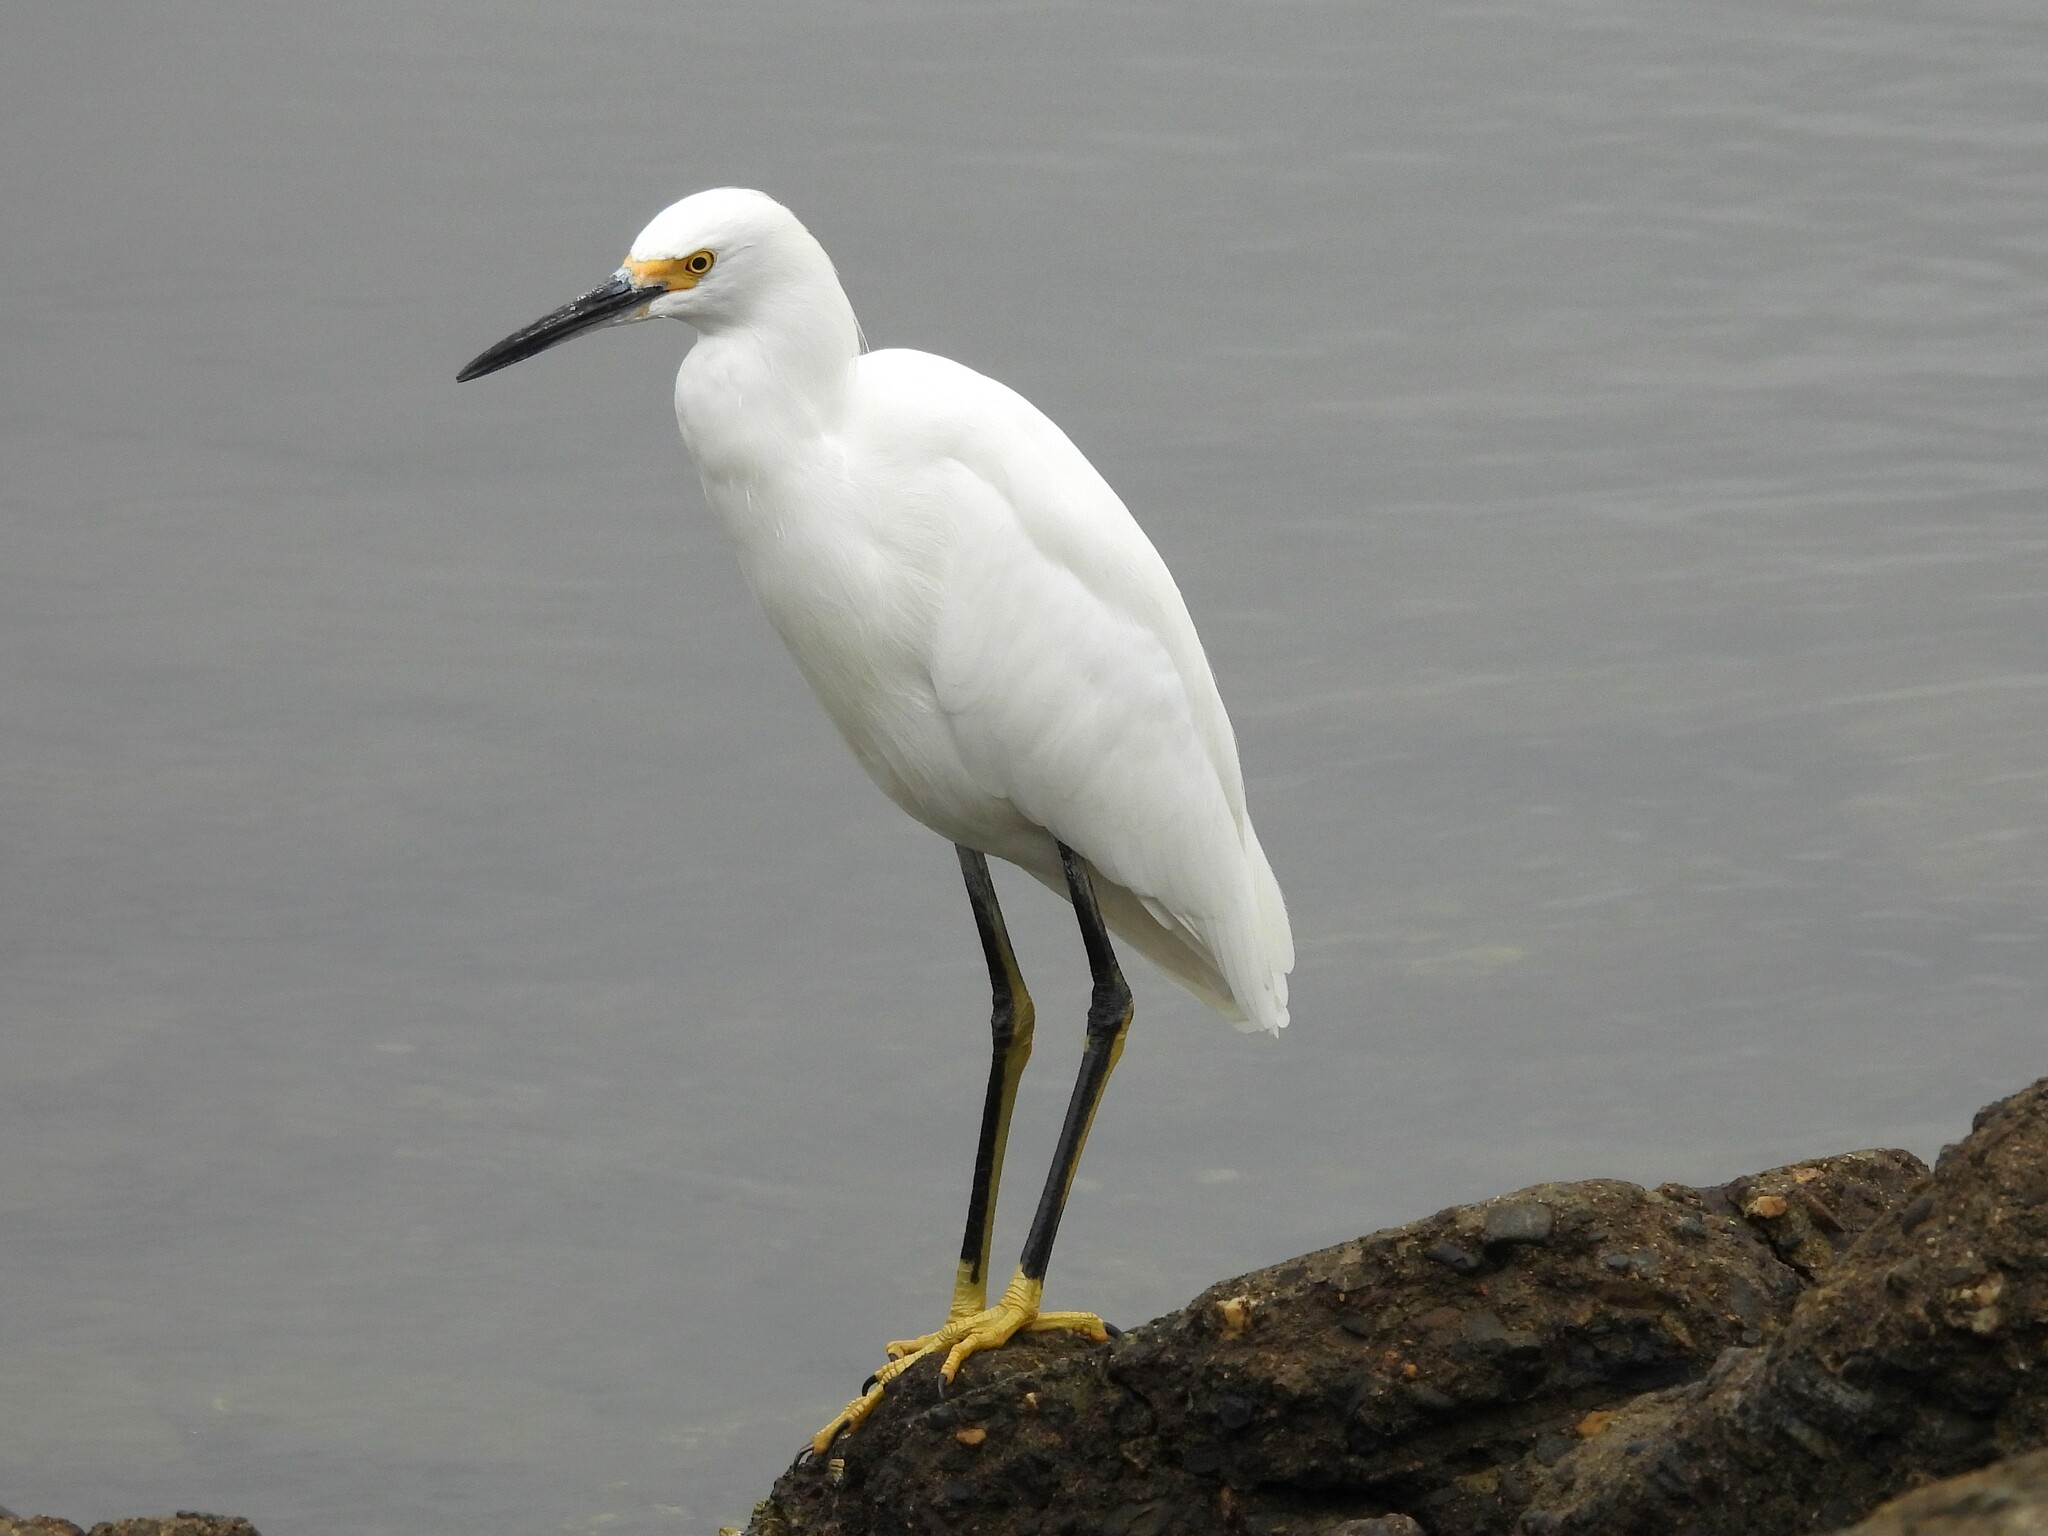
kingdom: Animalia
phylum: Chordata
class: Aves
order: Pelecaniformes
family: Ardeidae
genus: Egretta
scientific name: Egretta thula
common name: Snowy egret
